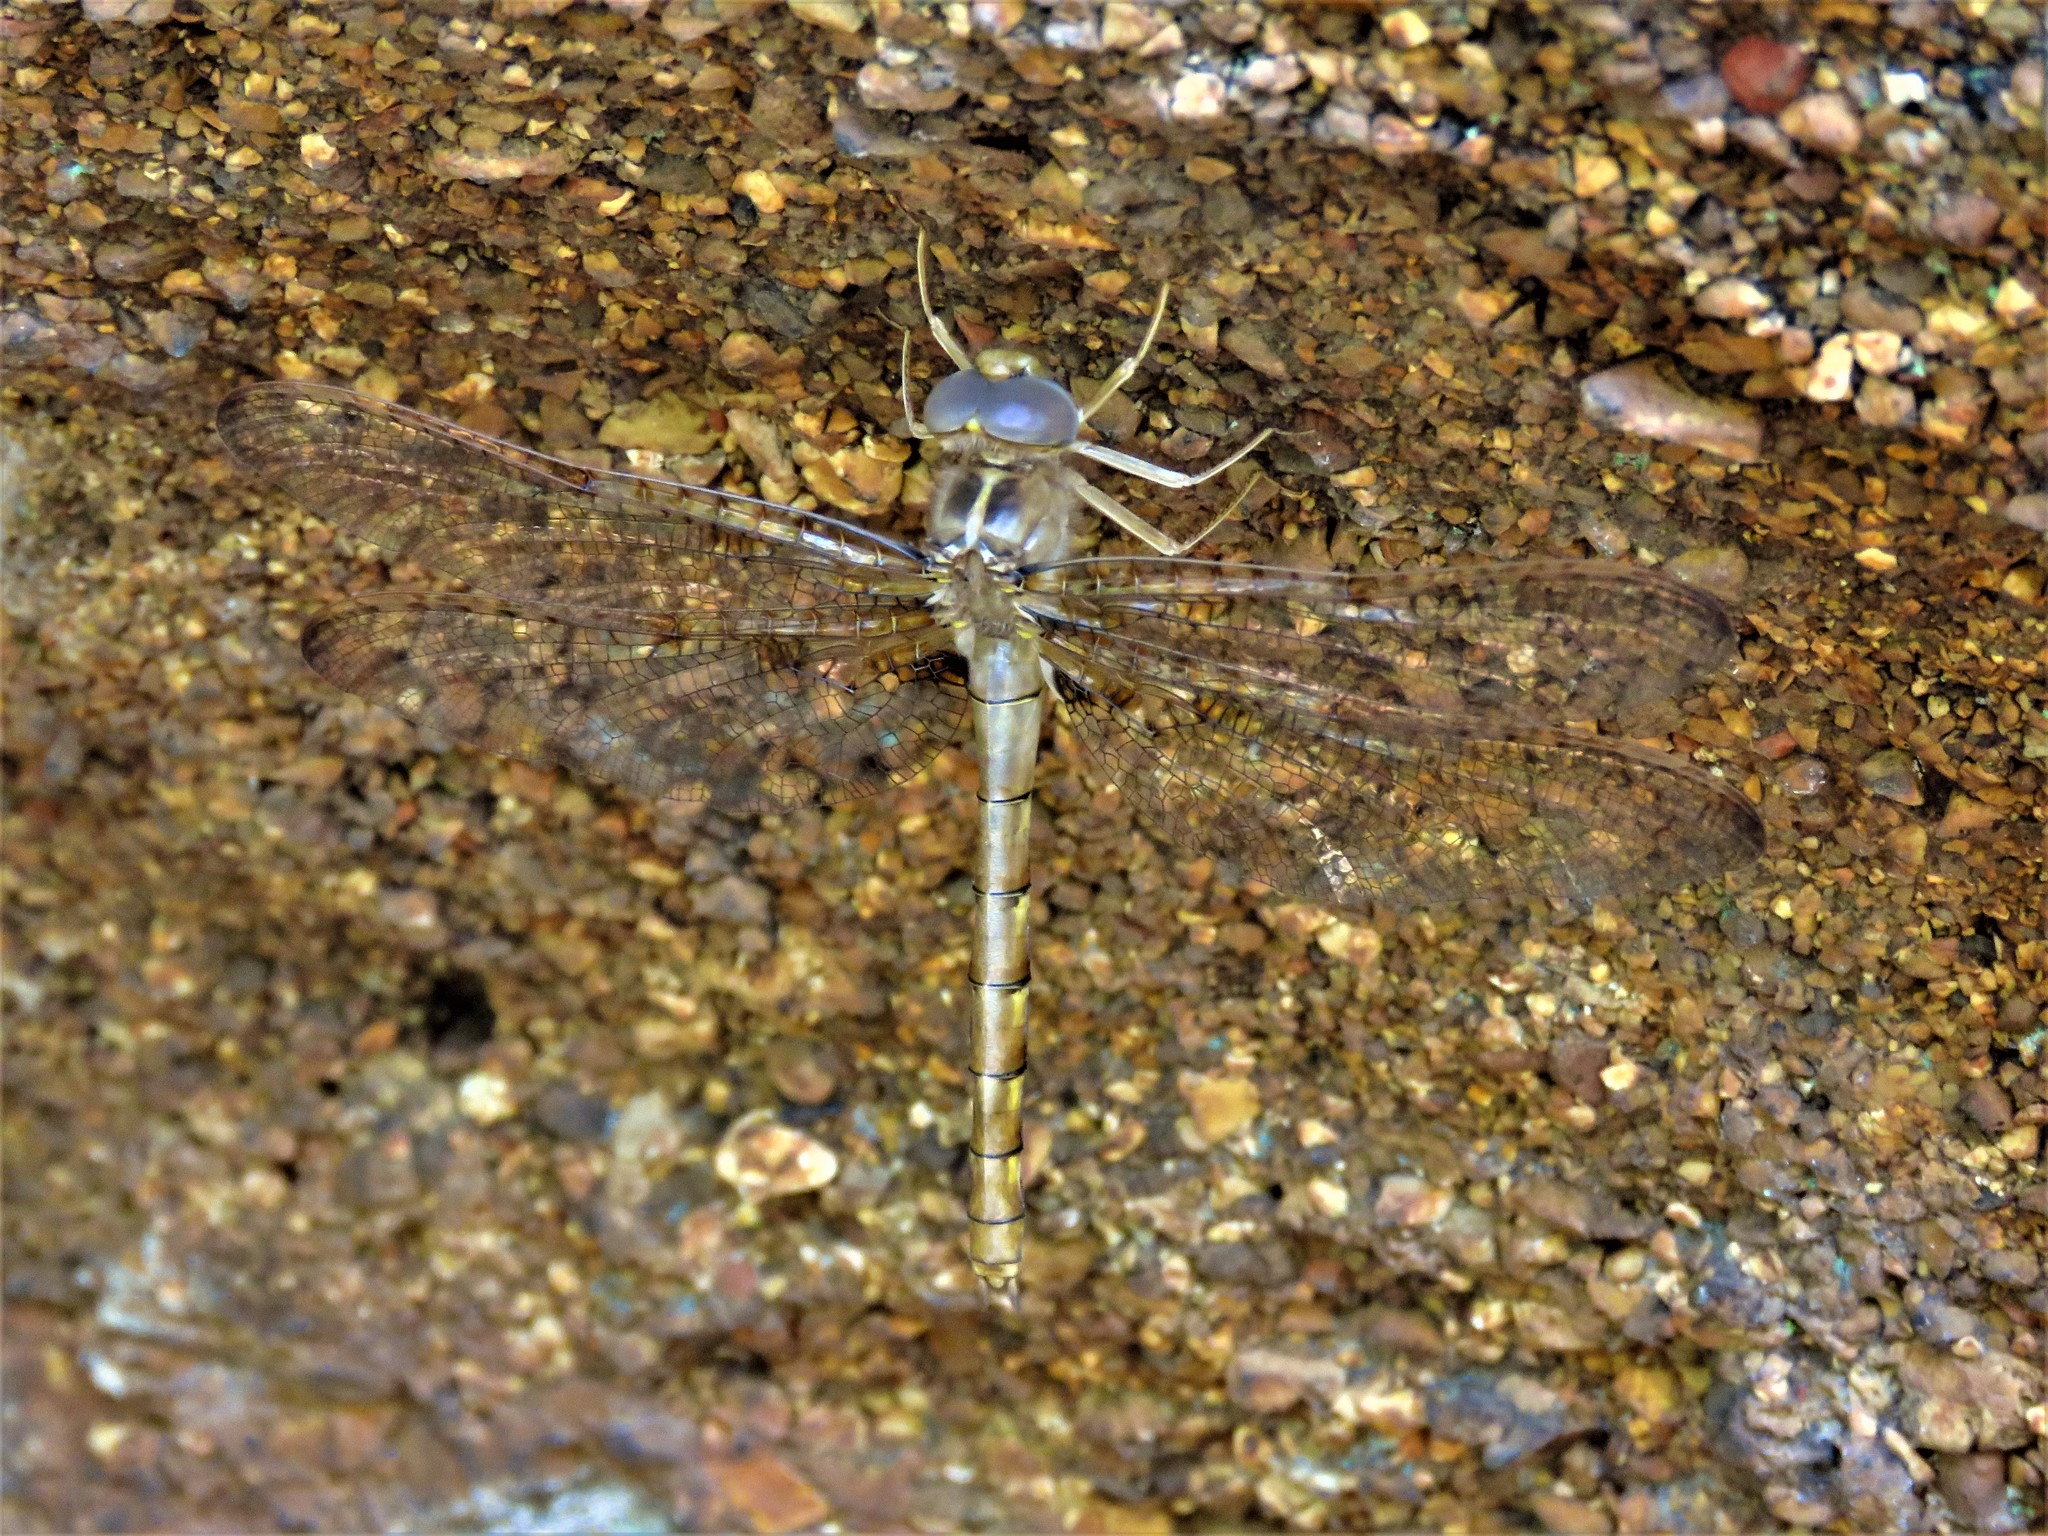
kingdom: Animalia
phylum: Arthropoda
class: Insecta
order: Odonata
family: Corduliidae
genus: Neurocordulia
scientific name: Neurocordulia xanthosoma
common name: Orange shadowdragon
